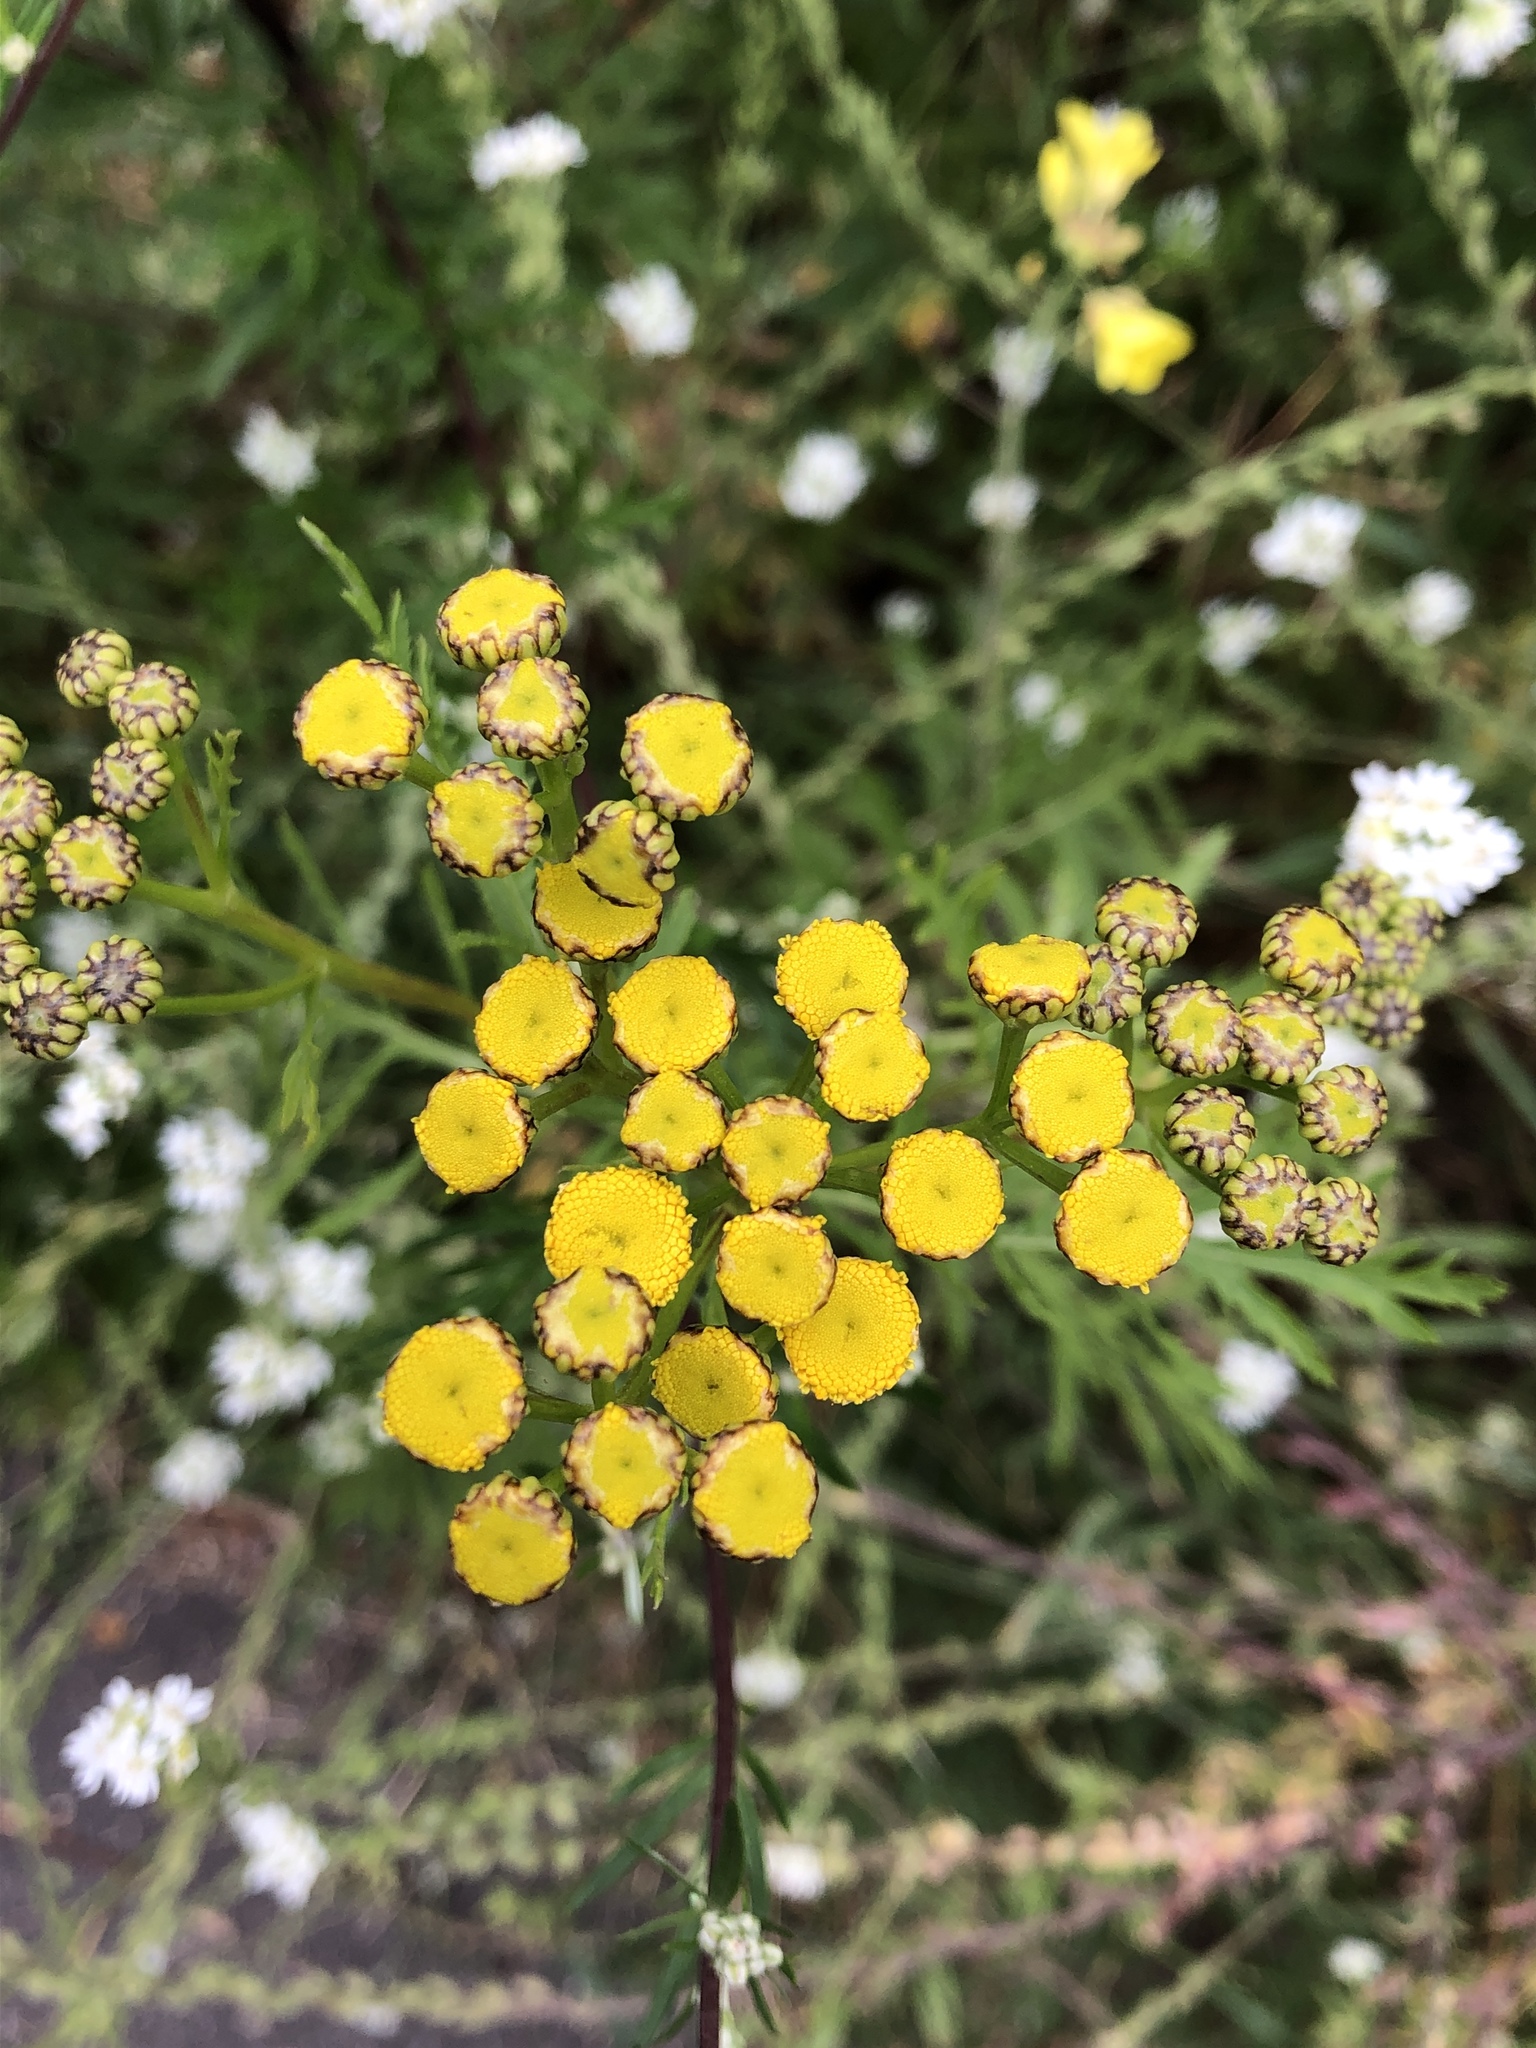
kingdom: Plantae
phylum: Tracheophyta
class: Magnoliopsida
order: Asterales
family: Asteraceae
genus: Tanacetum
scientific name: Tanacetum vulgare
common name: Common tansy
